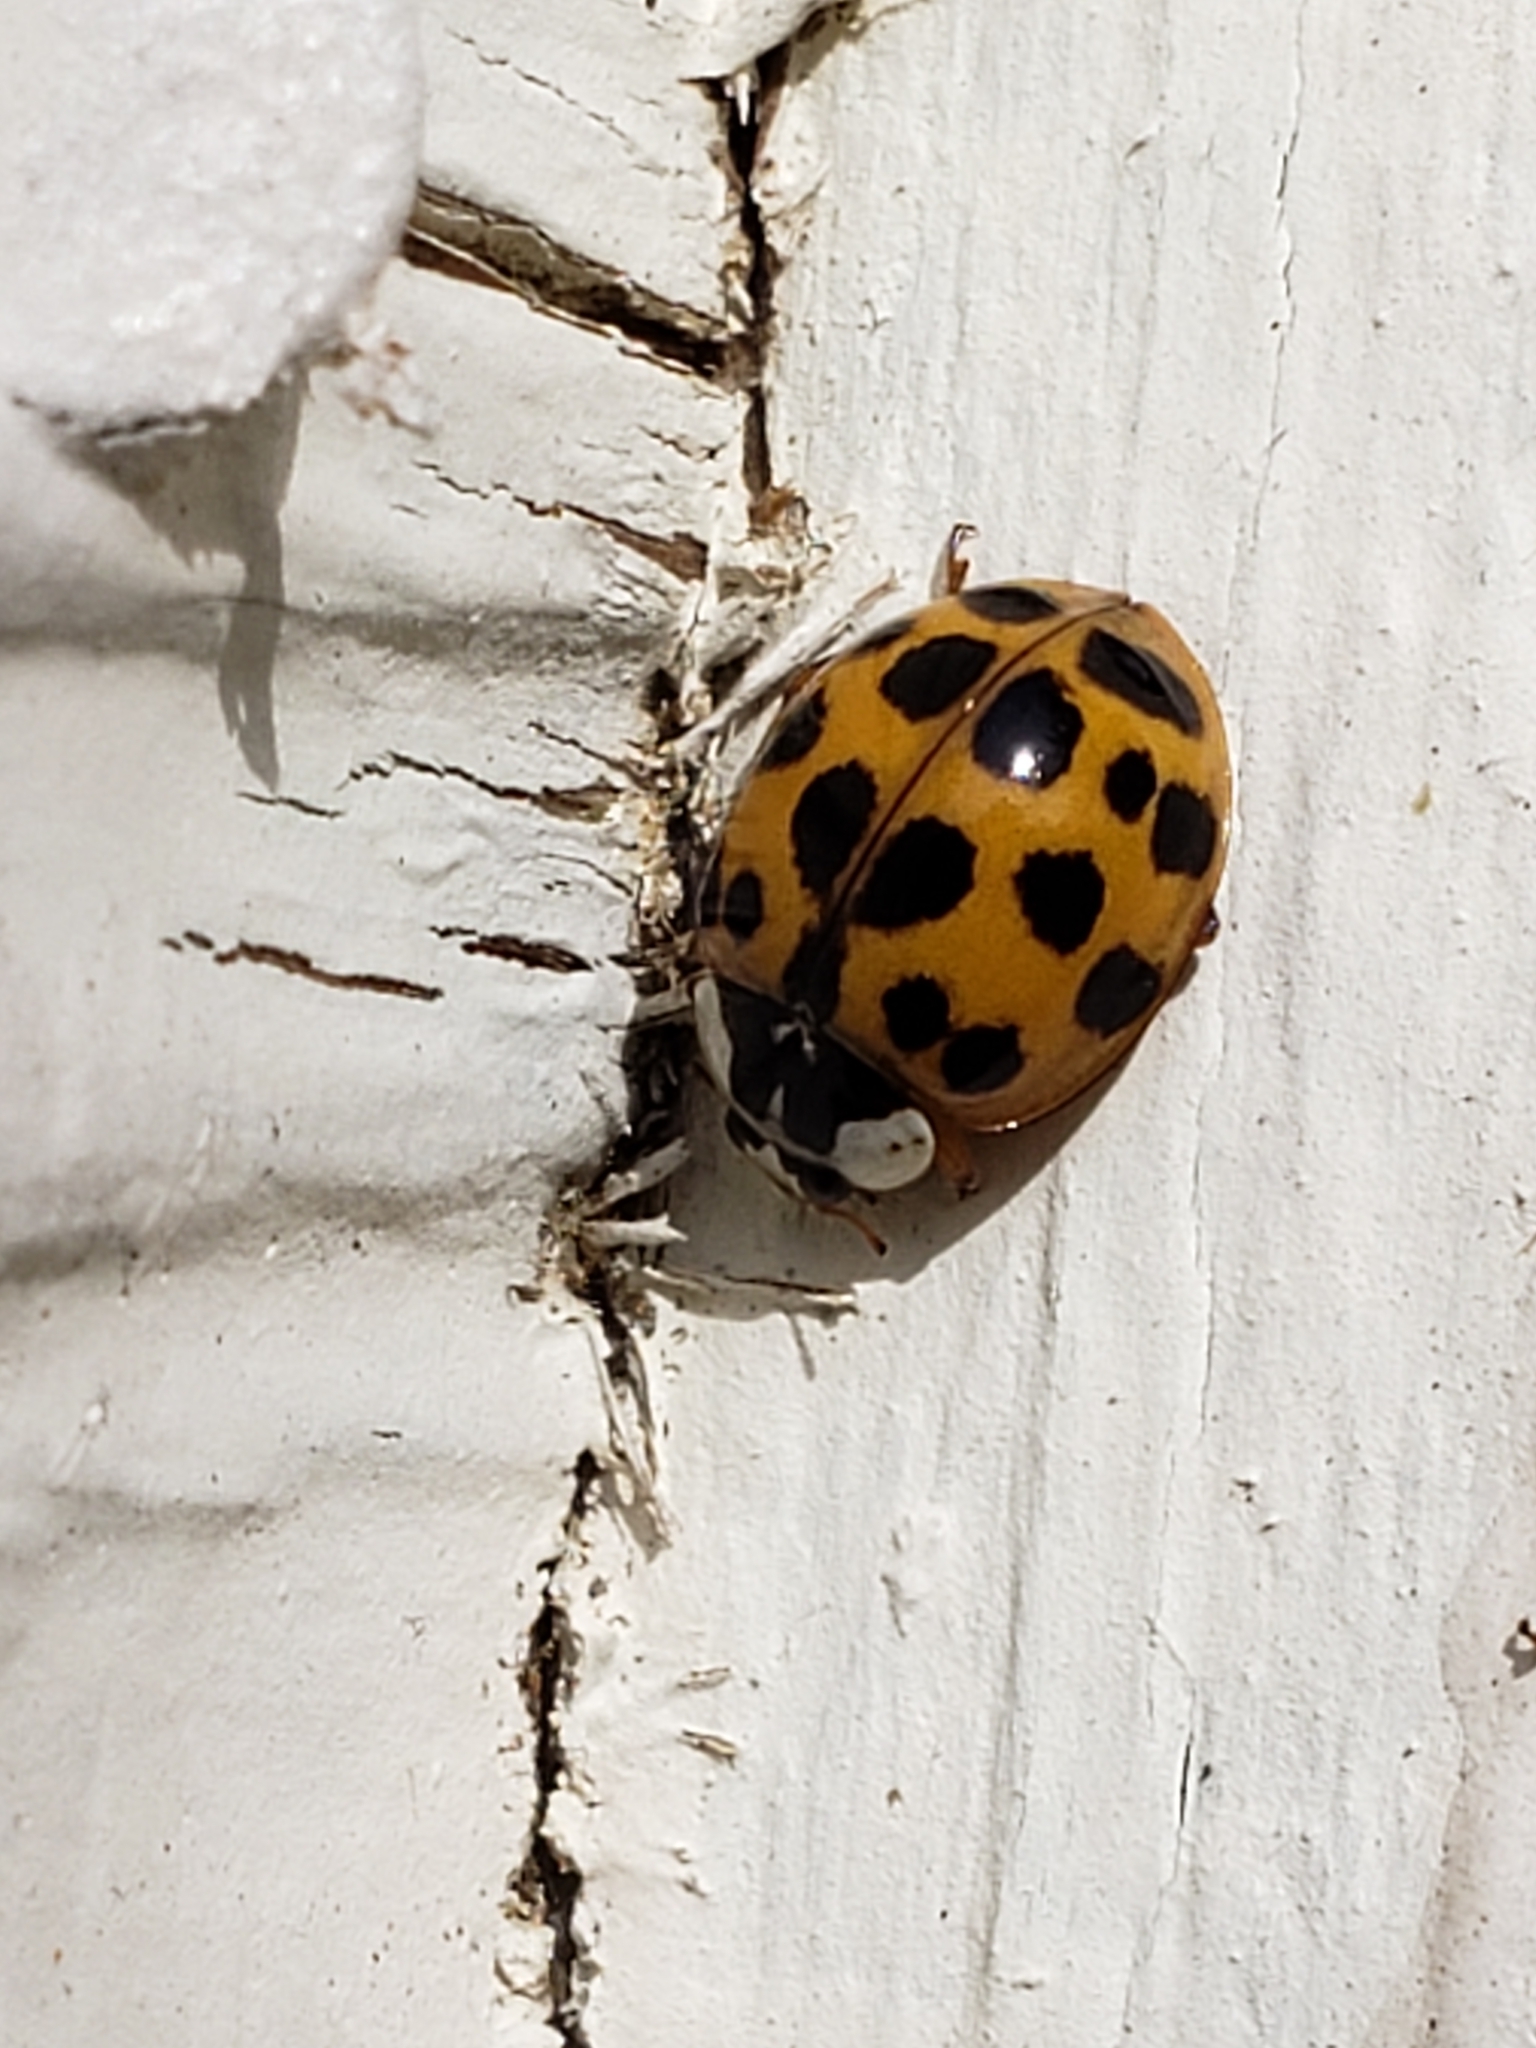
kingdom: Animalia
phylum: Arthropoda
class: Insecta
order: Coleoptera
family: Coccinellidae
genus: Harmonia
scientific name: Harmonia axyridis
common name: Harlequin ladybird
